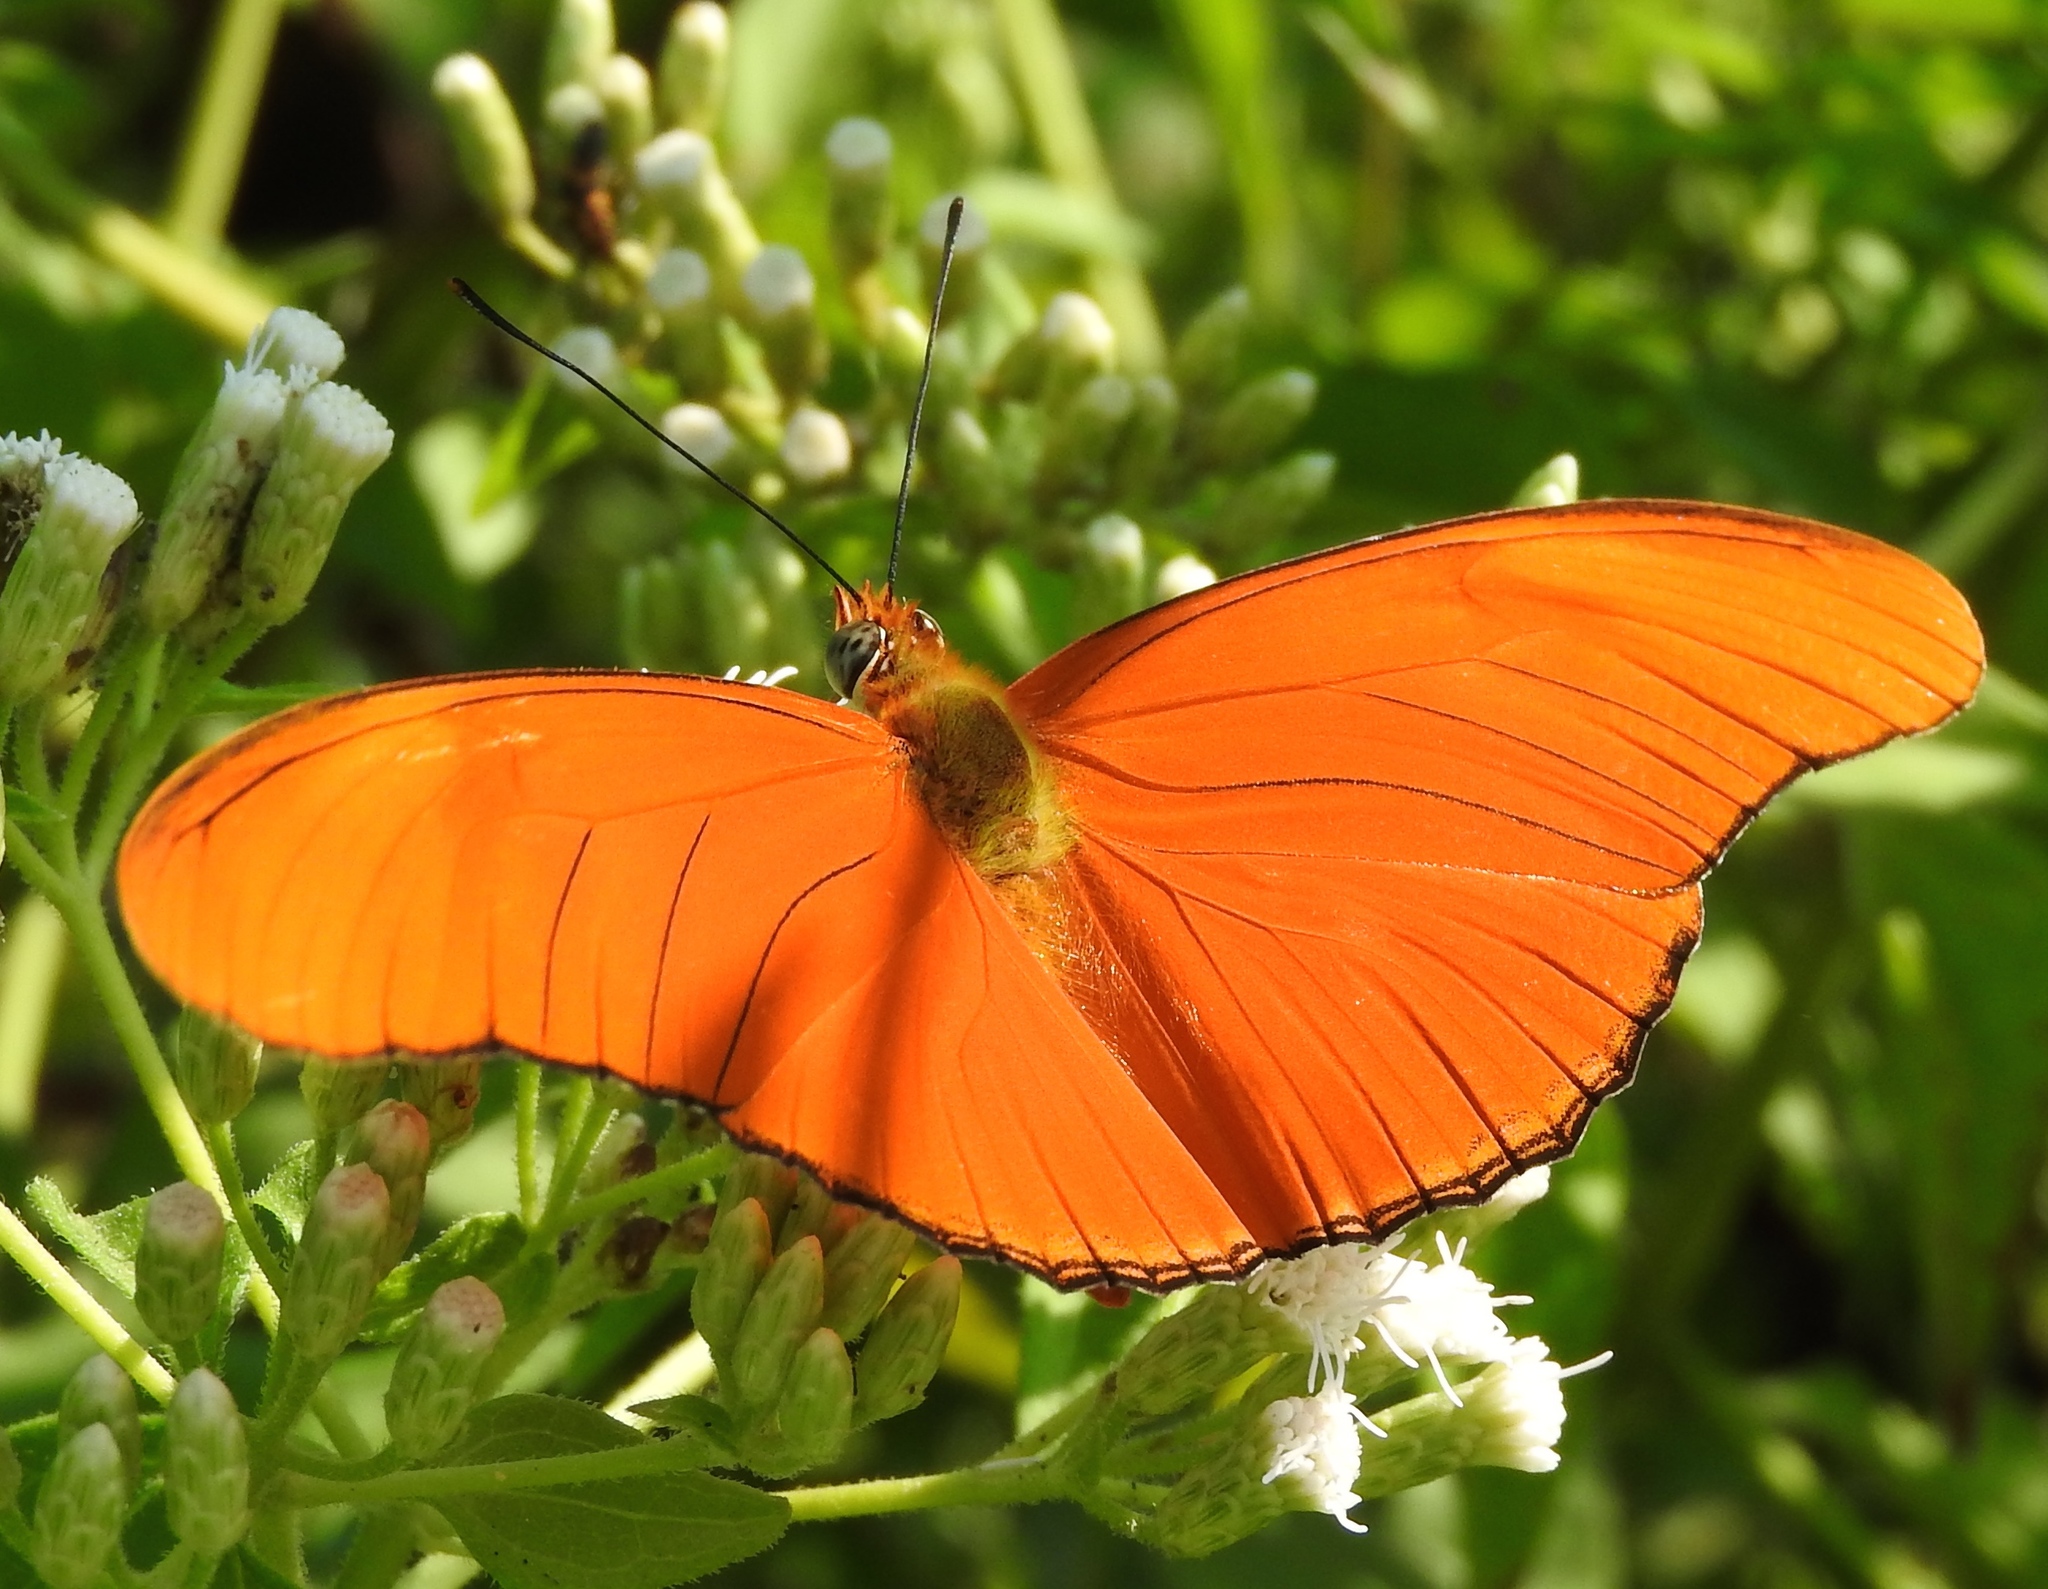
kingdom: Animalia
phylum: Arthropoda
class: Insecta
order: Lepidoptera
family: Nymphalidae
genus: Dryas
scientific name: Dryas iulia
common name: Flambeau
